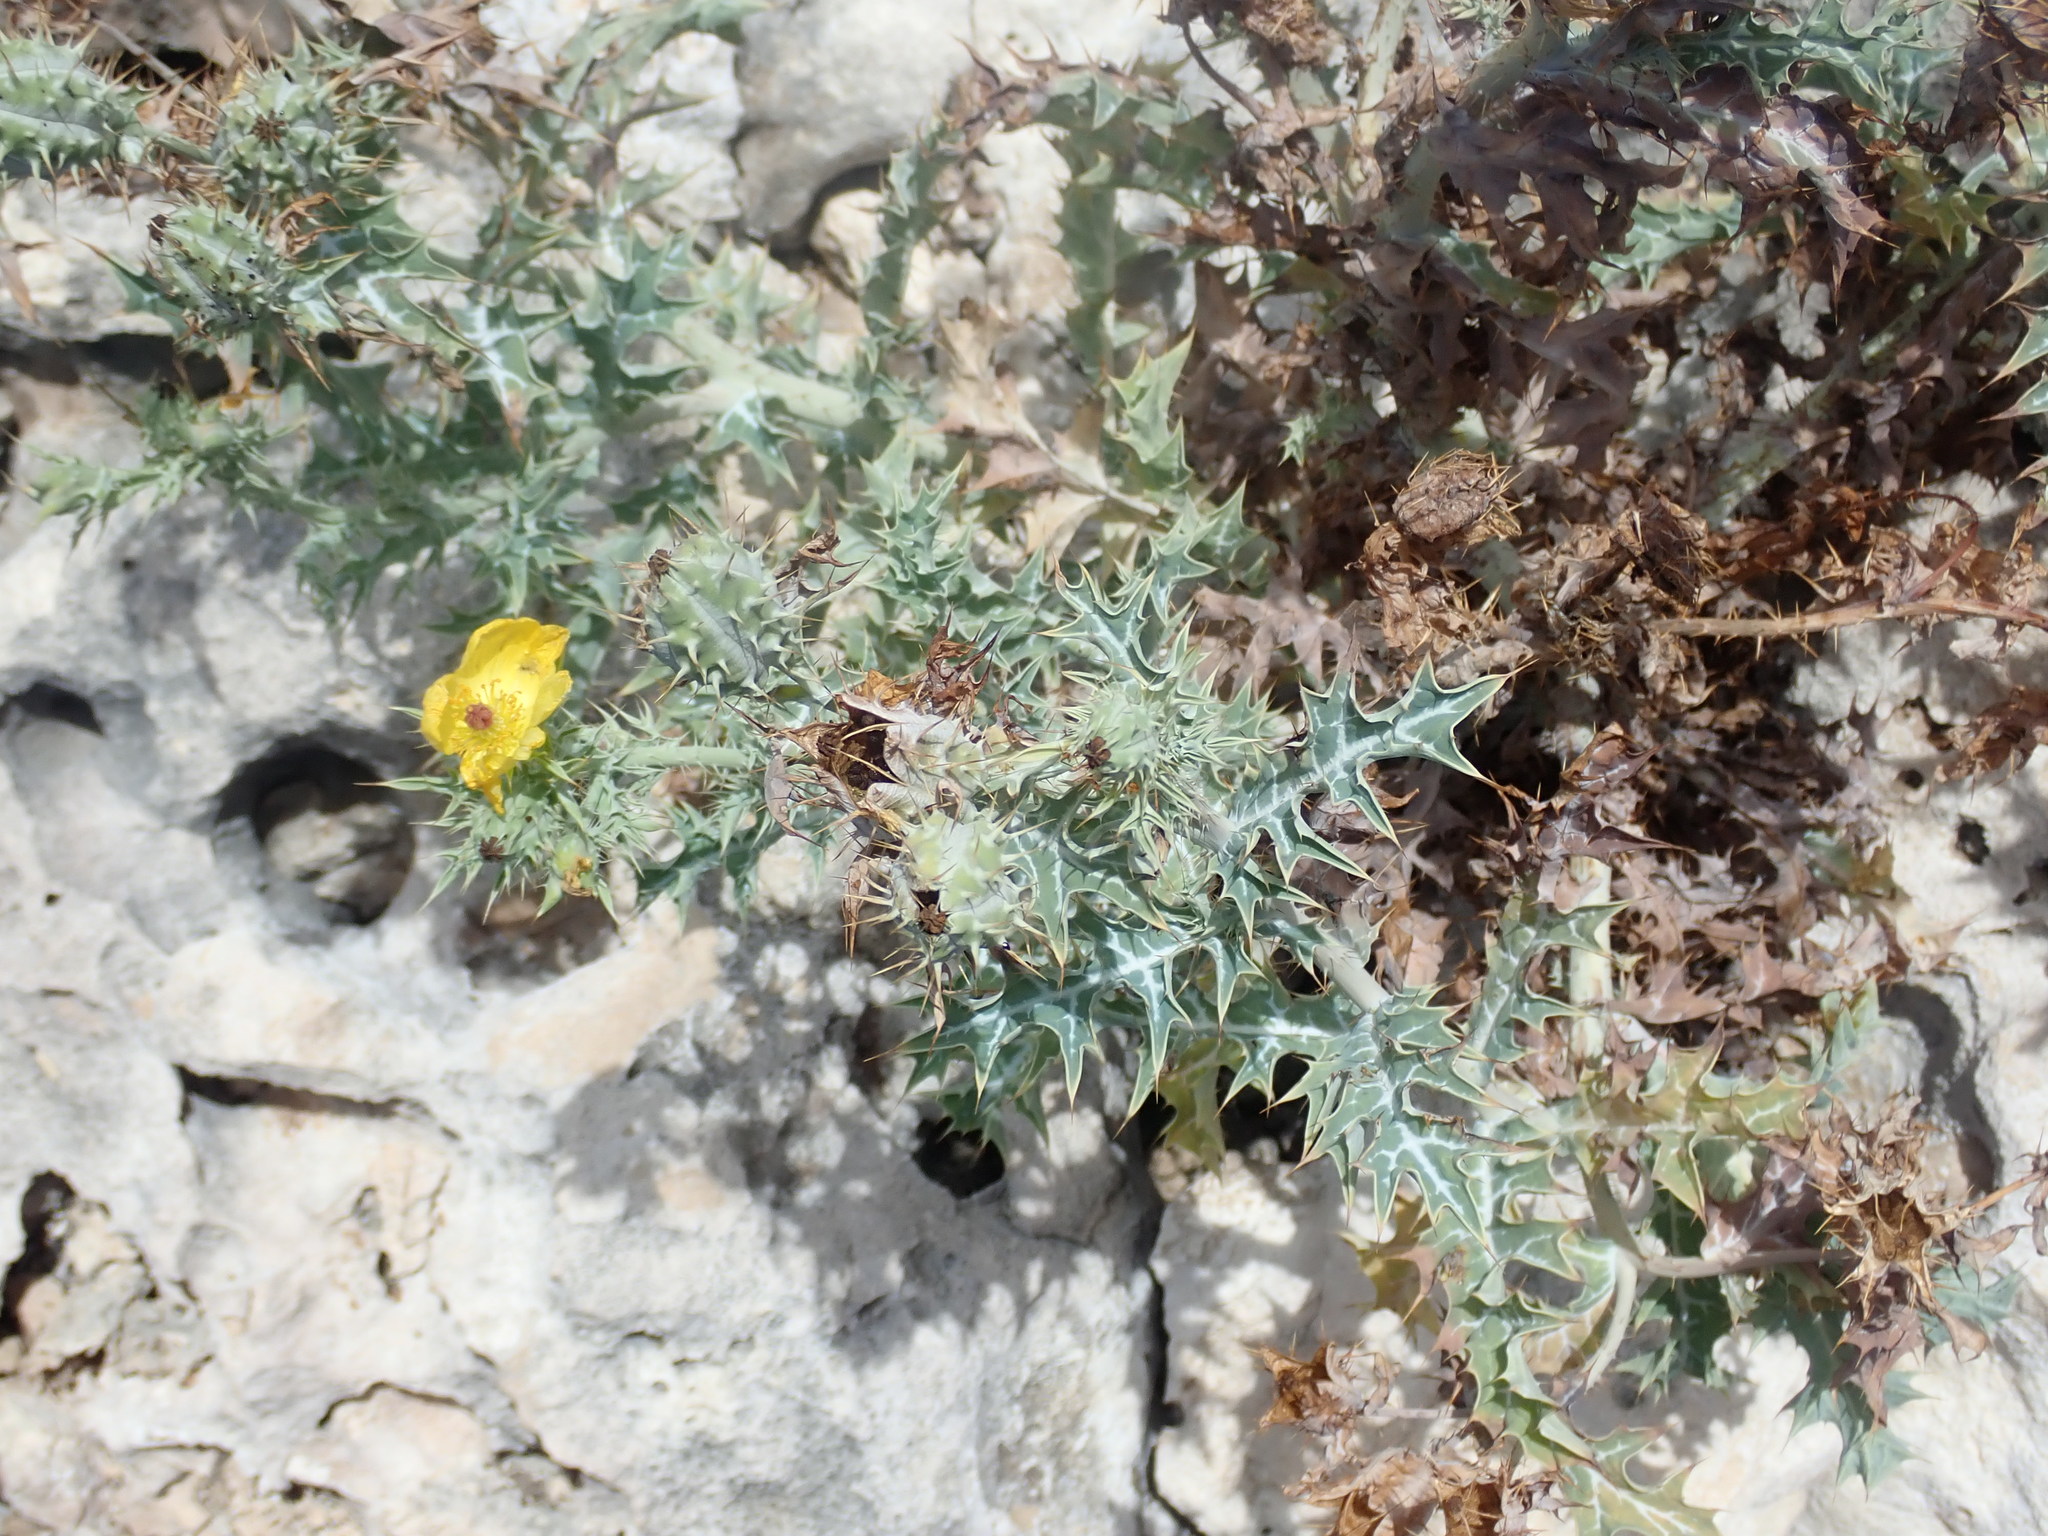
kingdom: Plantae
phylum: Tracheophyta
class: Magnoliopsida
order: Ranunculales
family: Papaveraceae
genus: Argemone
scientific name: Argemone mexicana
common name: Mexican poppy
